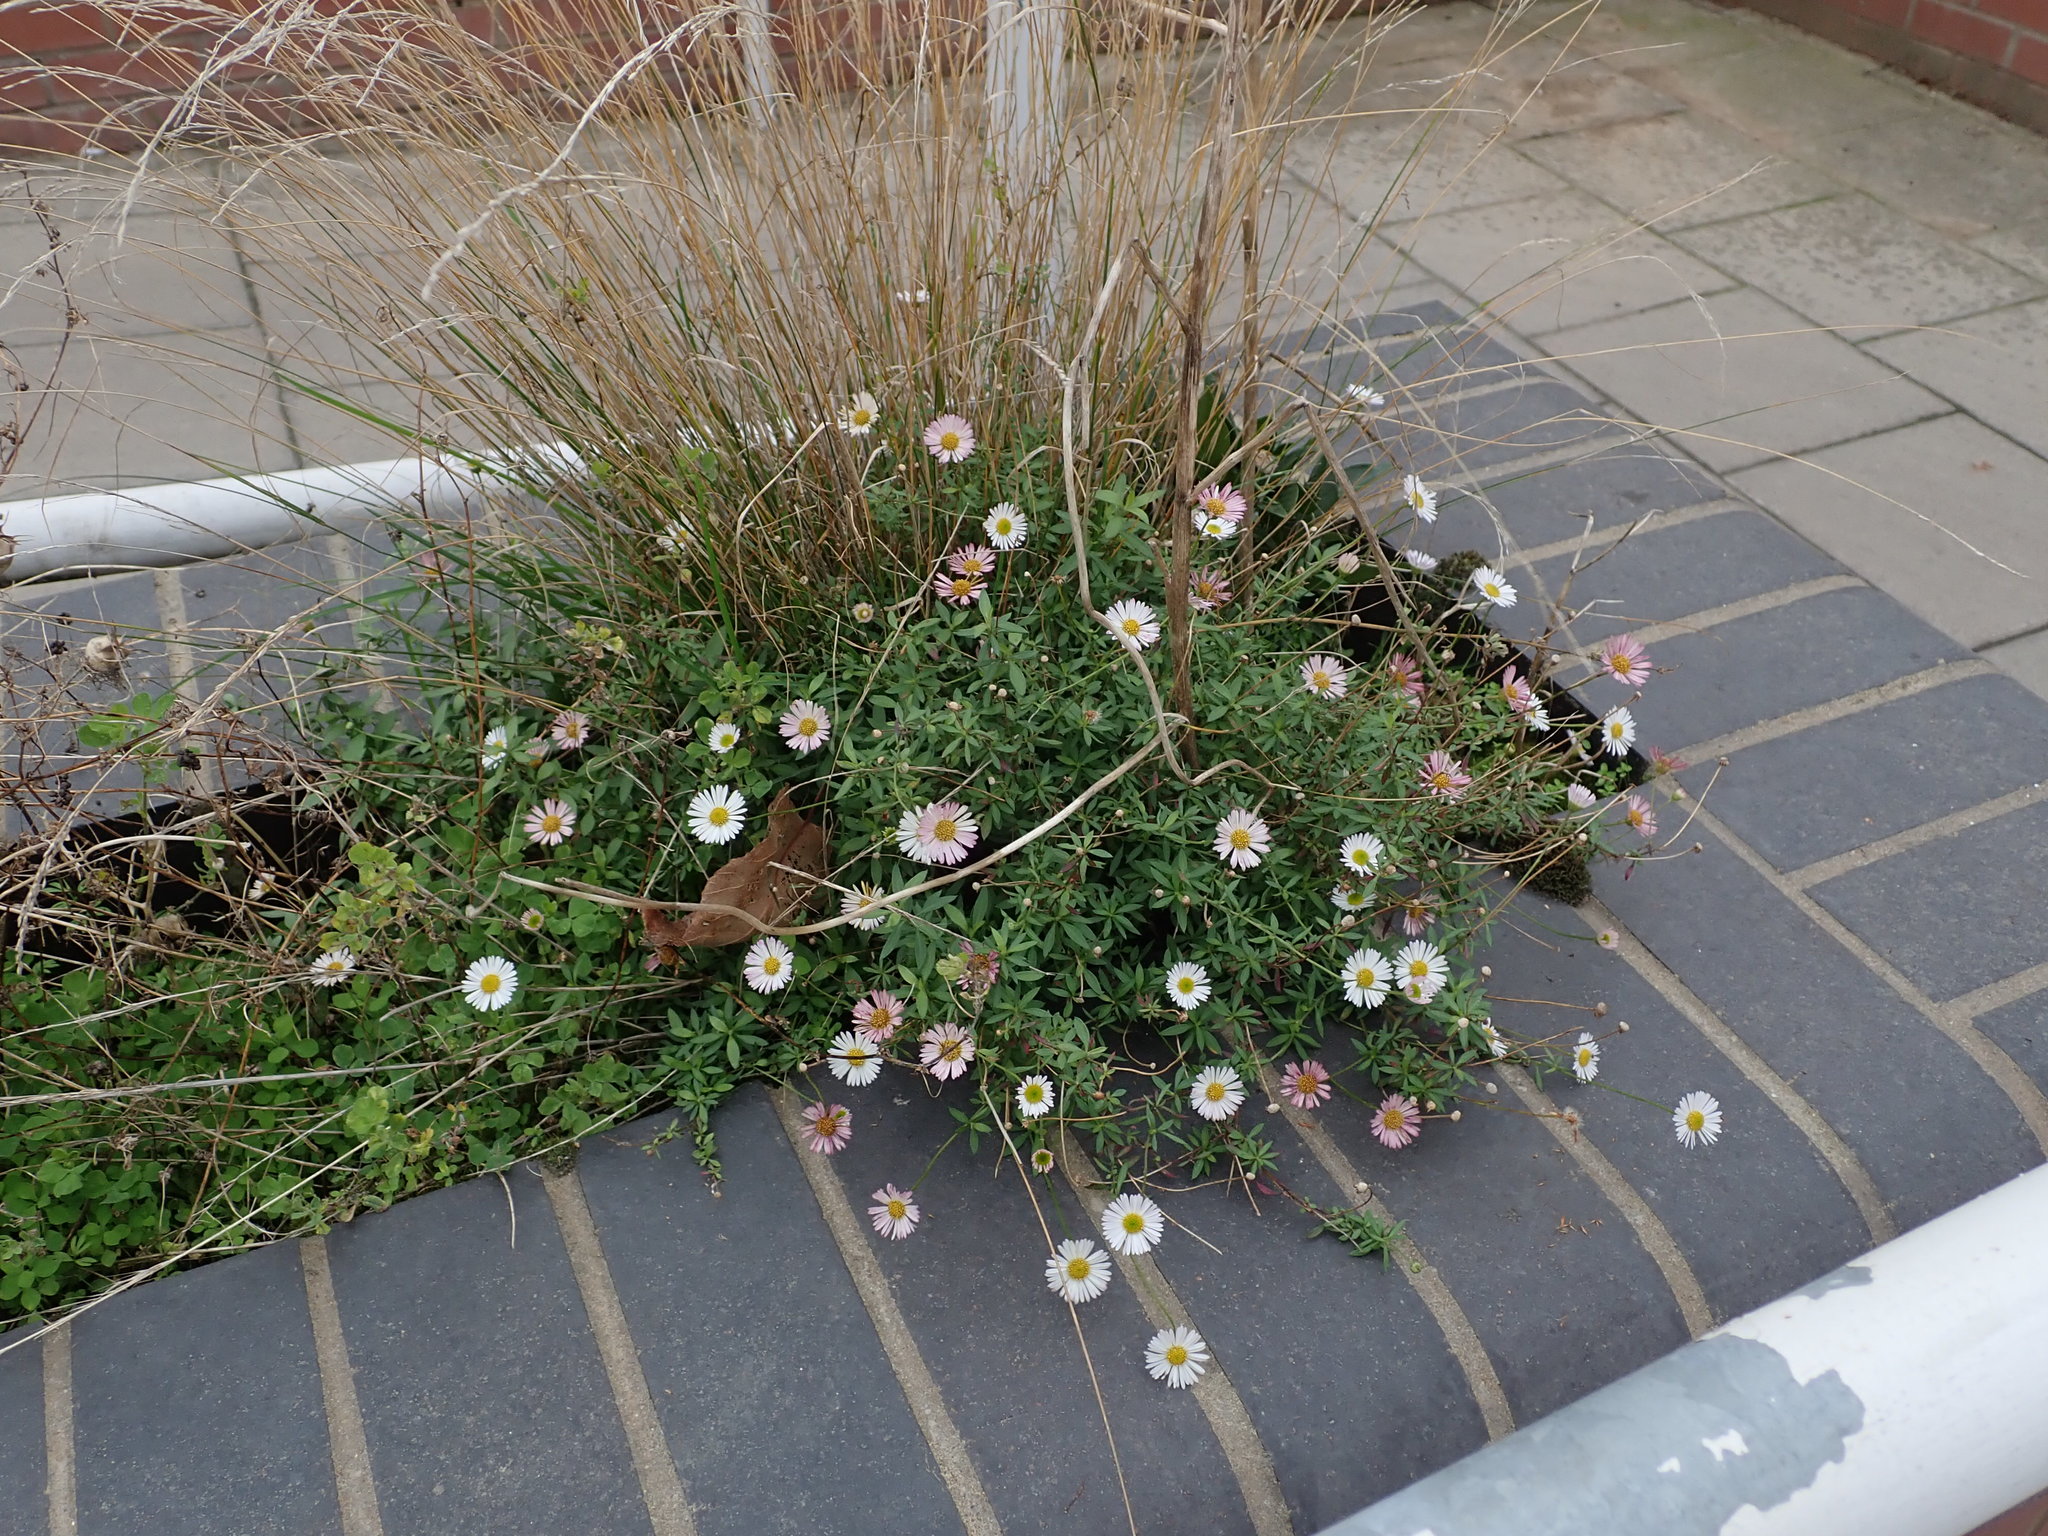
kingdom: Plantae
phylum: Tracheophyta
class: Magnoliopsida
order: Asterales
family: Asteraceae
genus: Erigeron
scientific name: Erigeron karvinskianus
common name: Mexican fleabane
